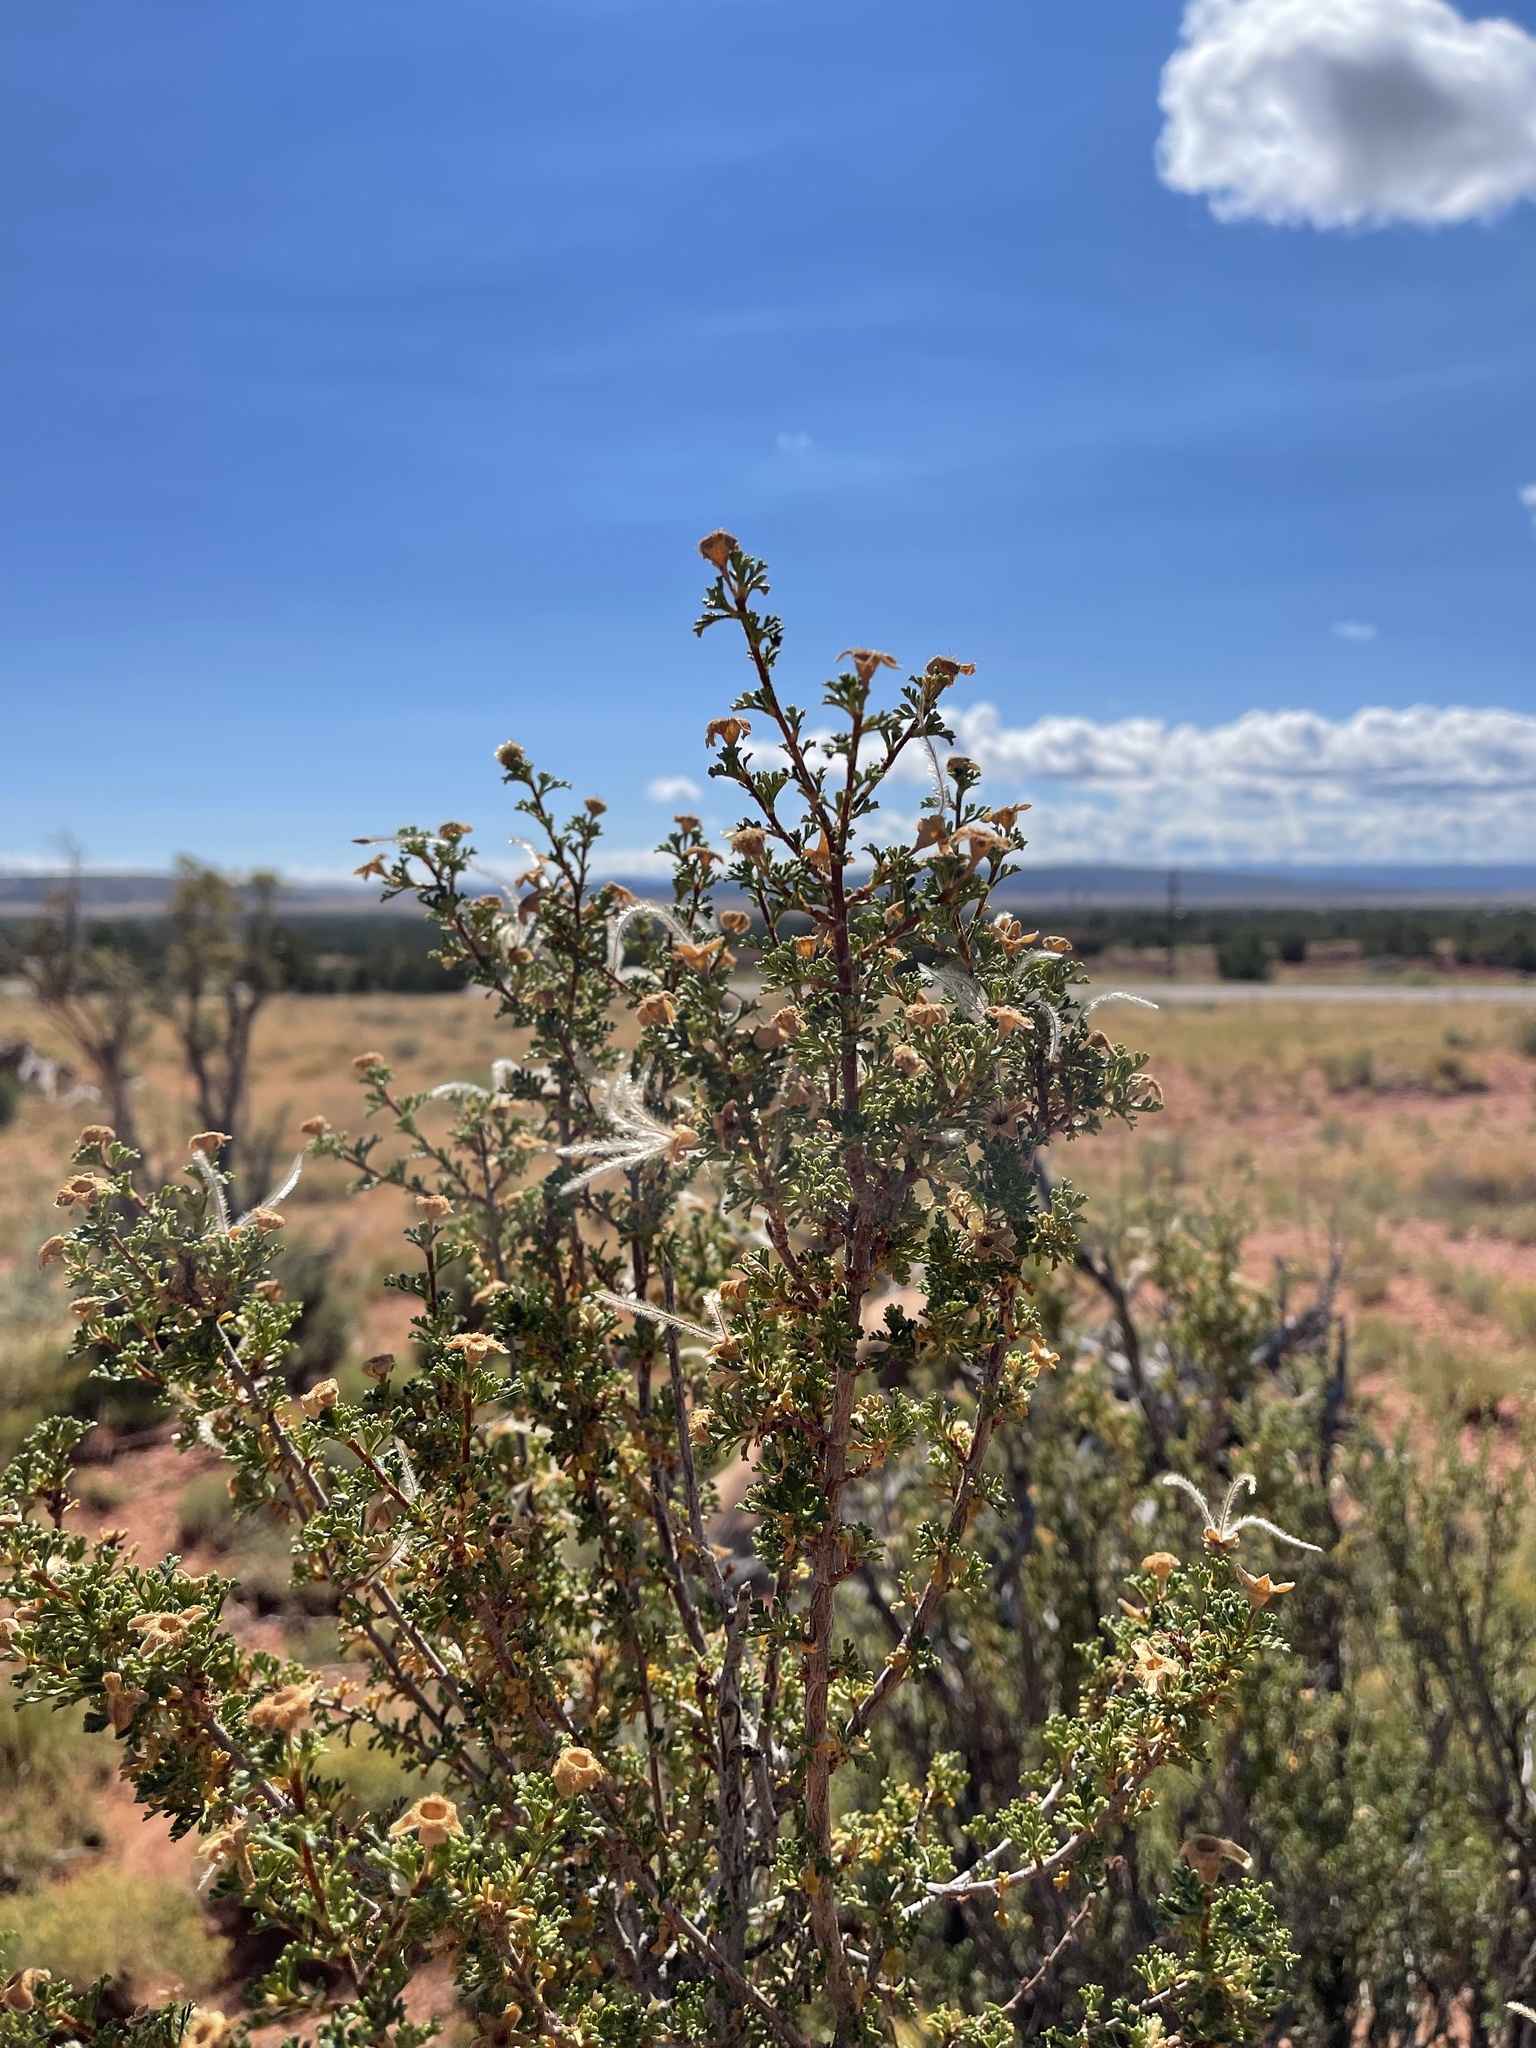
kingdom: Plantae
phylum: Tracheophyta
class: Magnoliopsida
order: Rosales
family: Rosaceae
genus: Purshia
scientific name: Purshia stansburiana
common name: Stansbury's cliffrose
